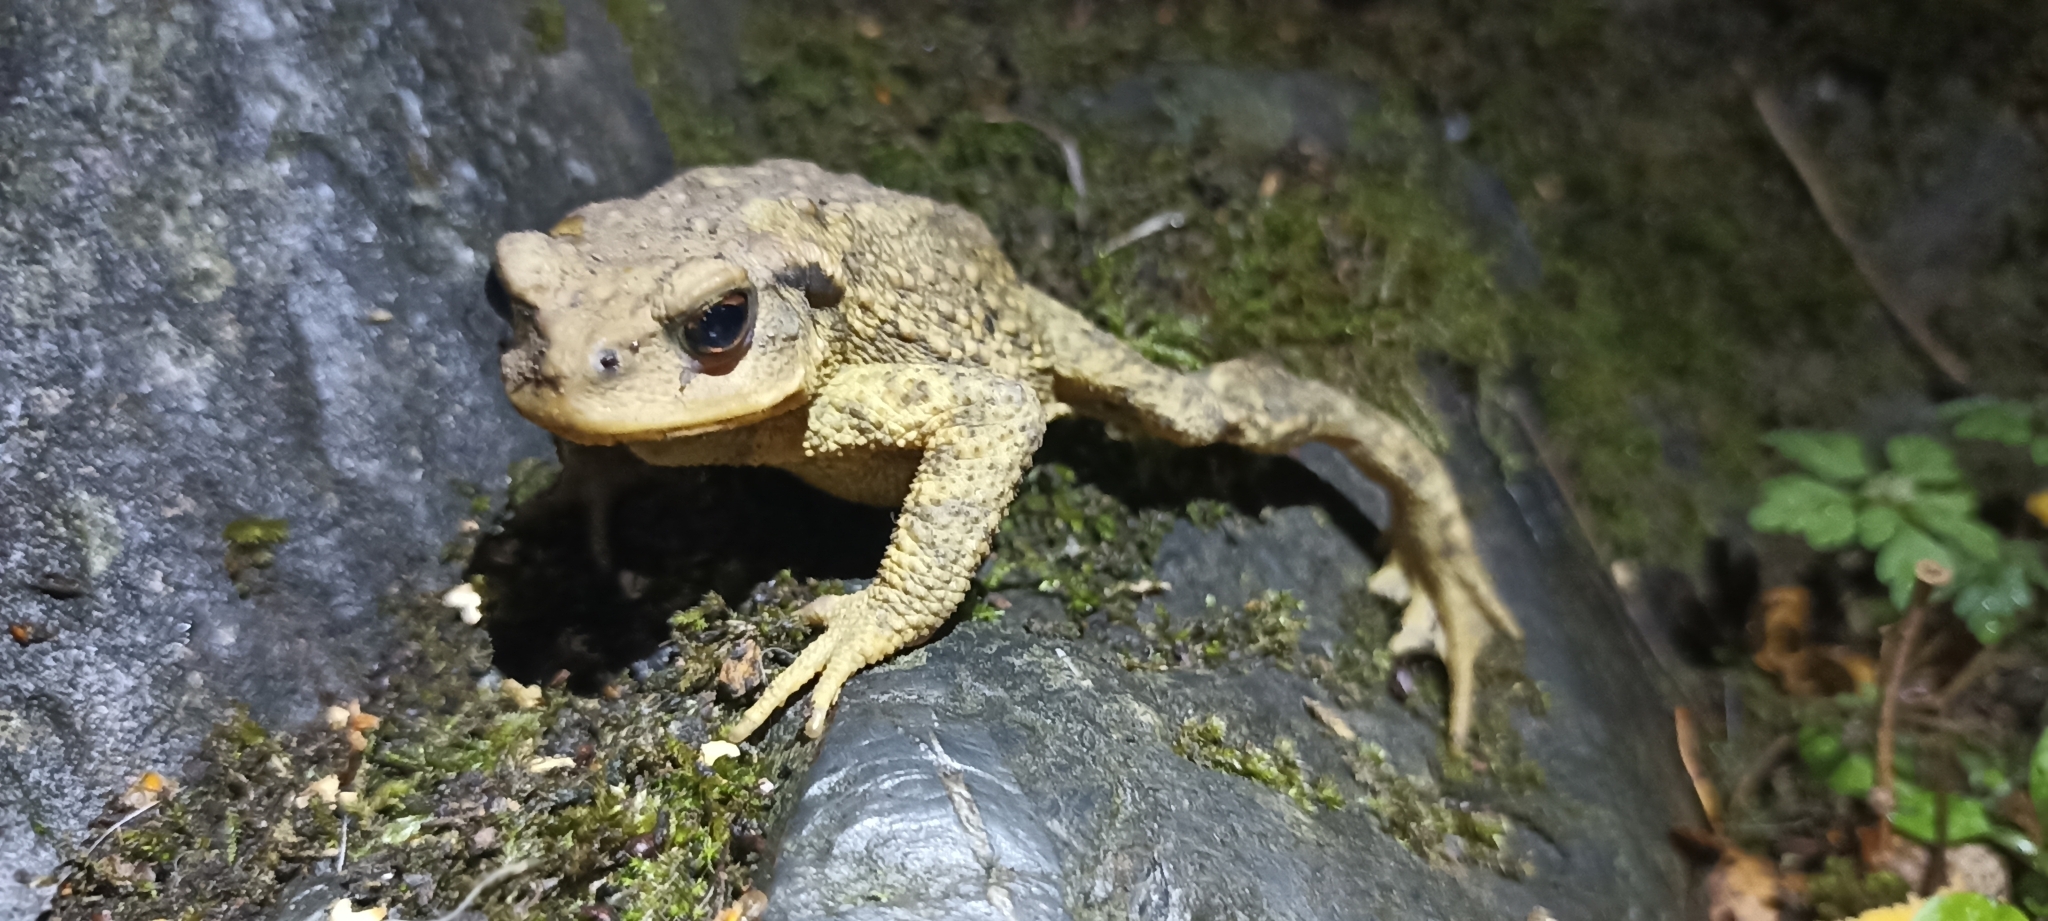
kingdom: Animalia
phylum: Chordata
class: Amphibia
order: Anura
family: Bufonidae
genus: Bufo
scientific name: Bufo spinosus
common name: Western common toad
